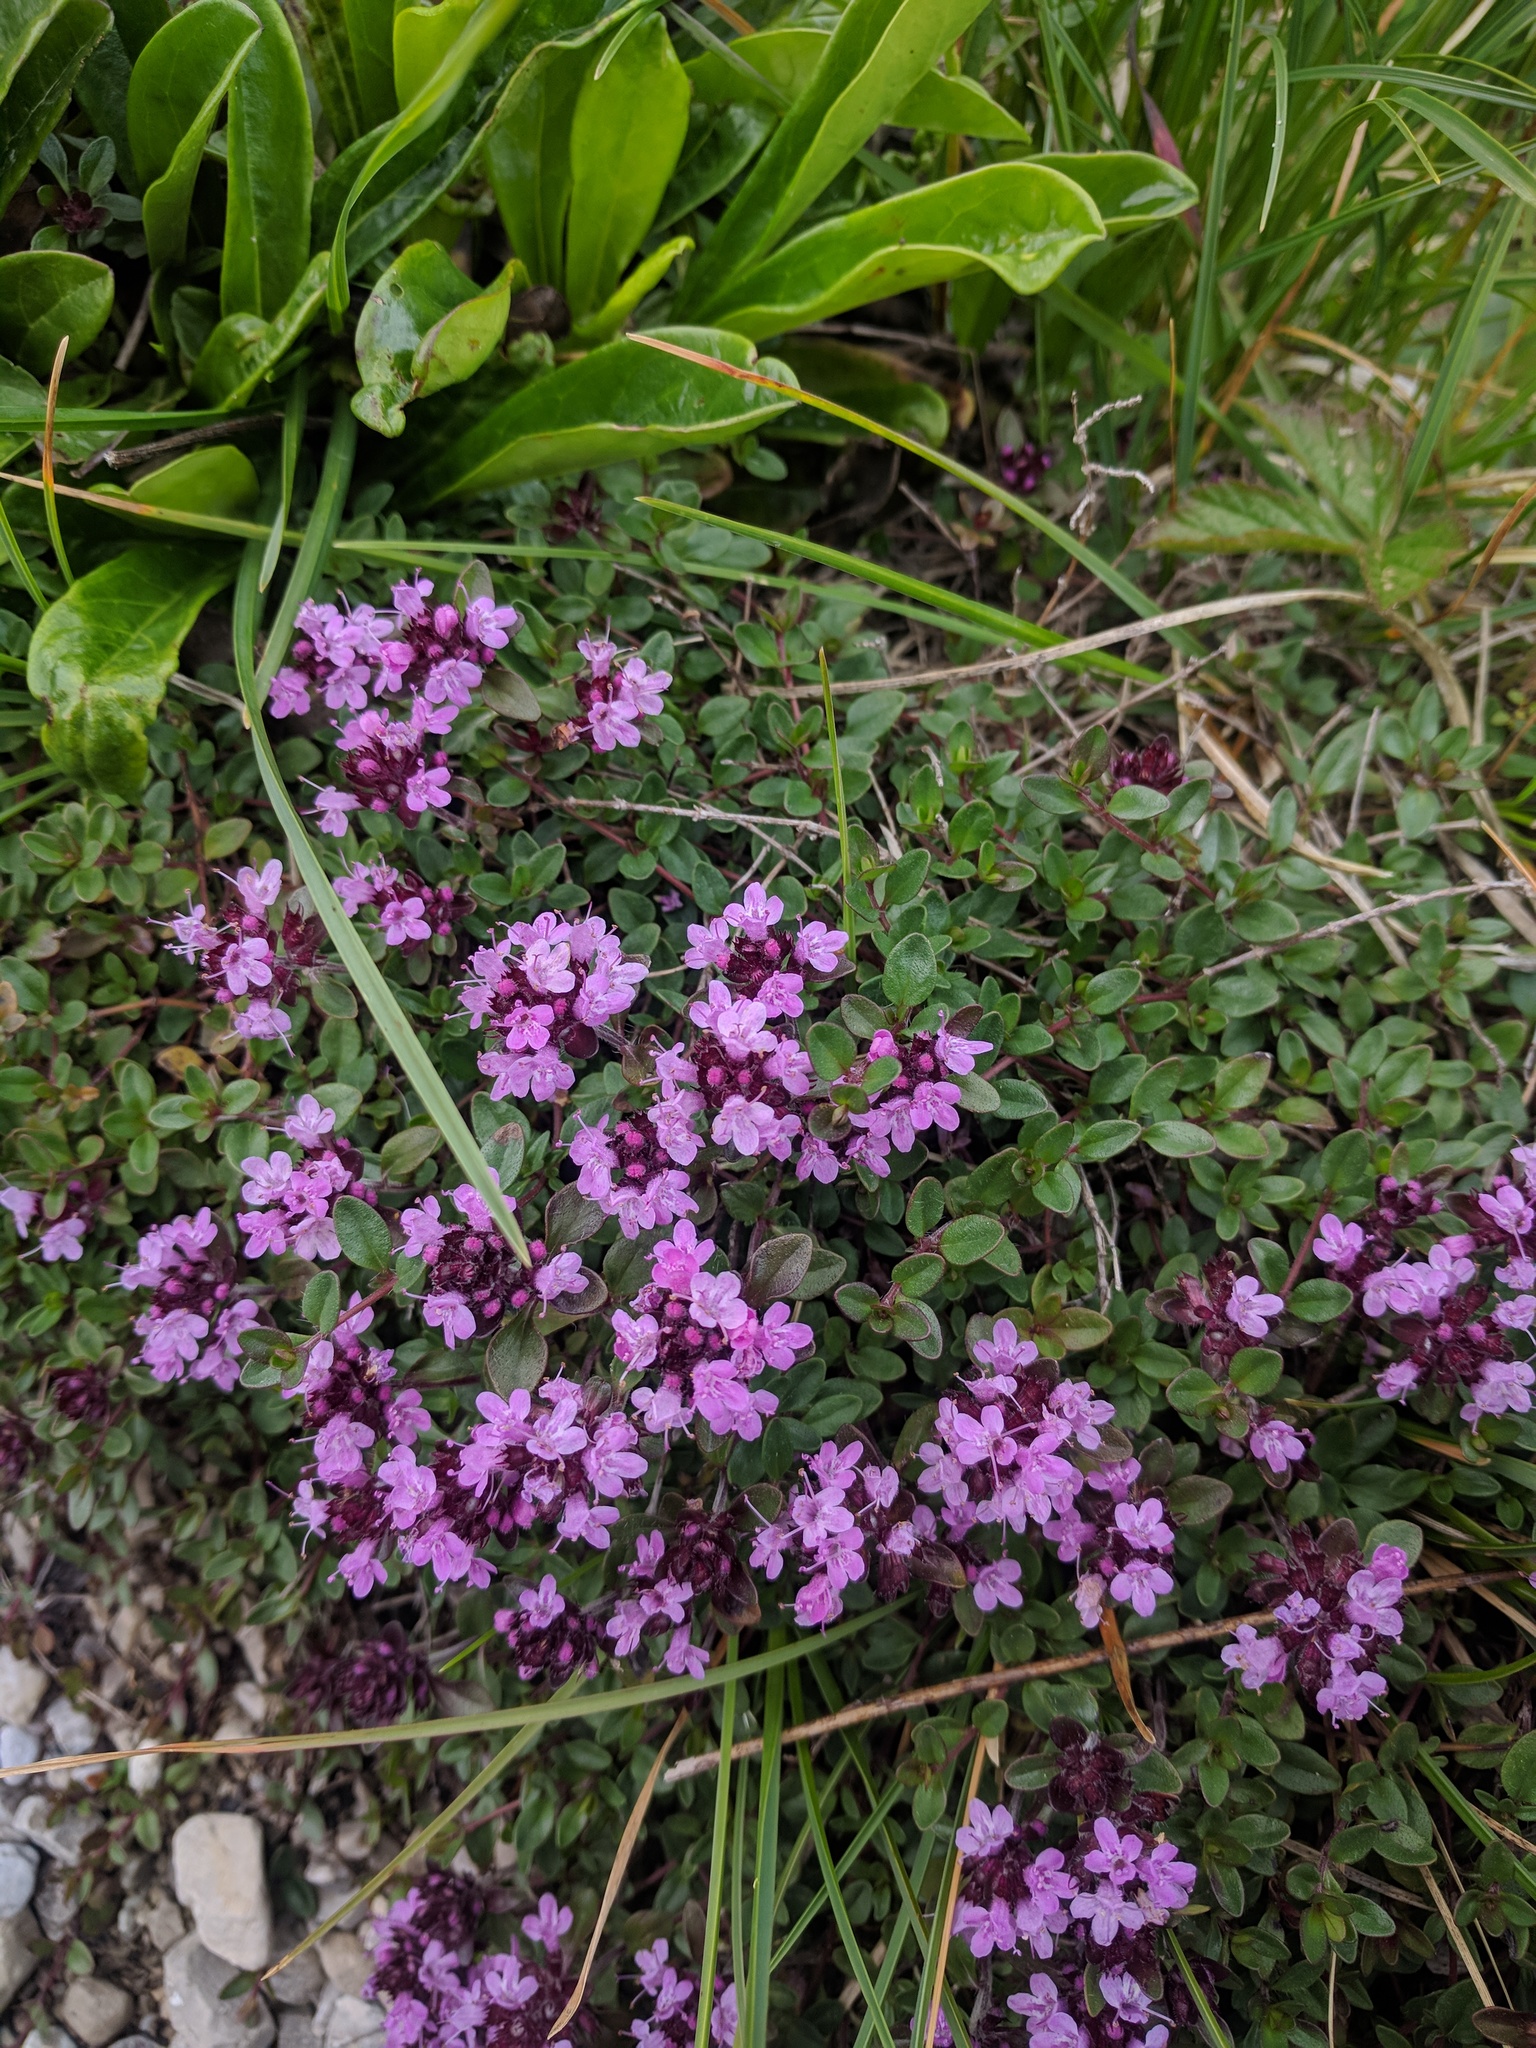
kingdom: Plantae
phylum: Tracheophyta
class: Magnoliopsida
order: Lamiales
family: Lamiaceae
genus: Thymus
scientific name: Thymus pulegioides
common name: Large thyme
